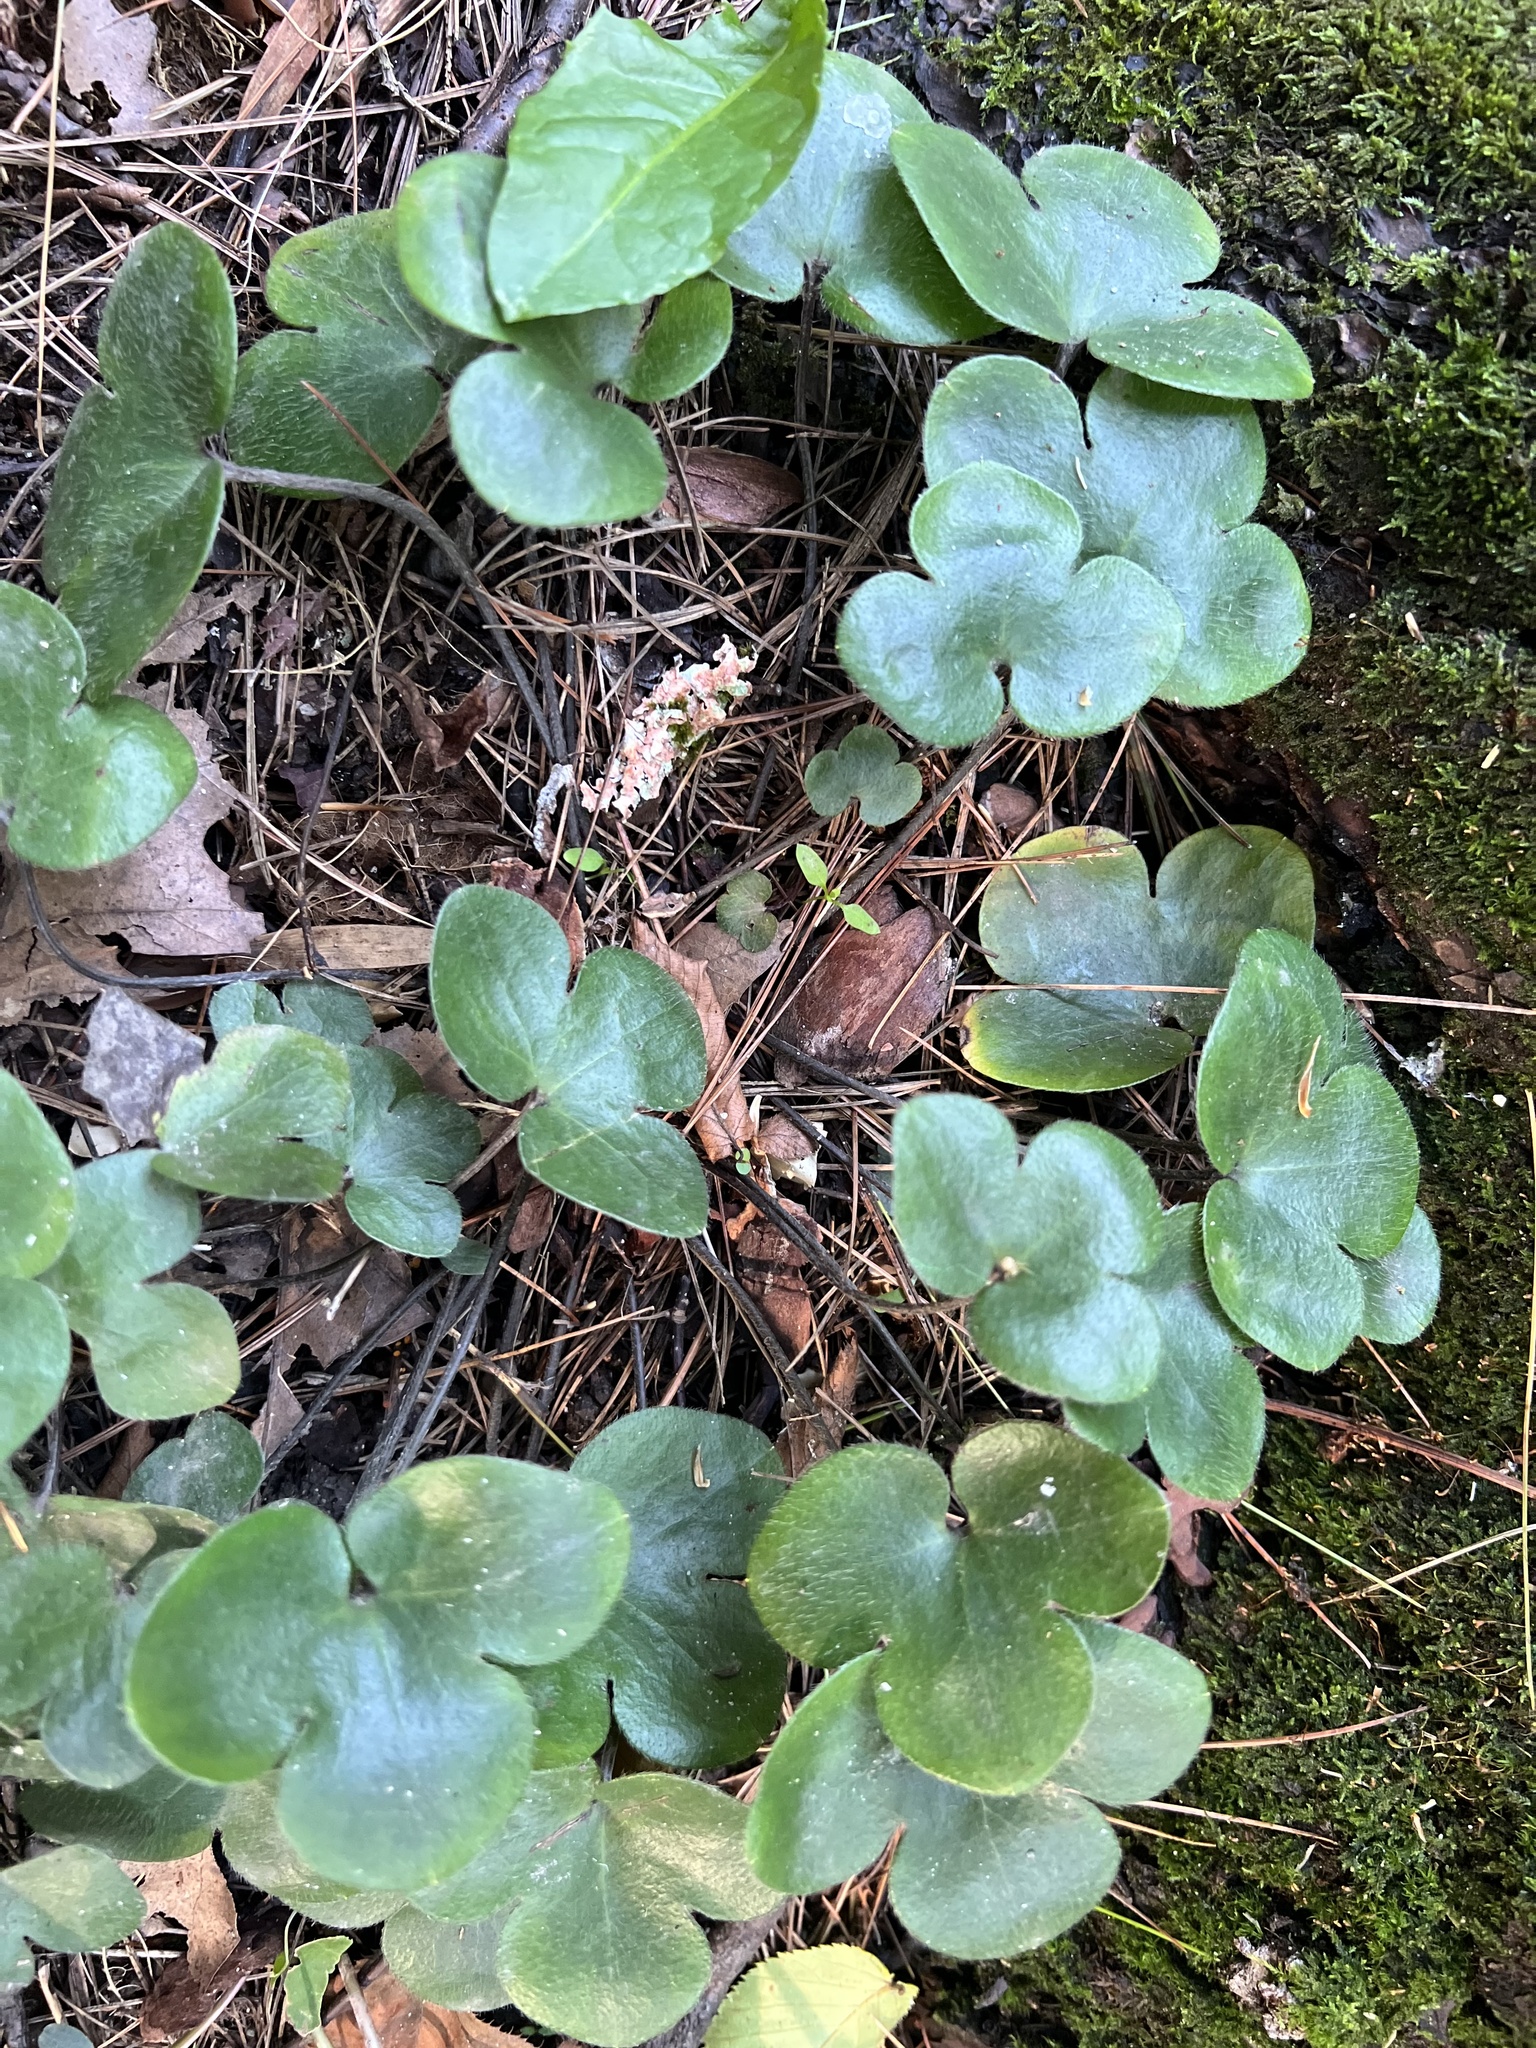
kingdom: Plantae
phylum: Tracheophyta
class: Magnoliopsida
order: Ranunculales
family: Ranunculaceae
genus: Hepatica
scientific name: Hepatica americana
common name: American hepatica
